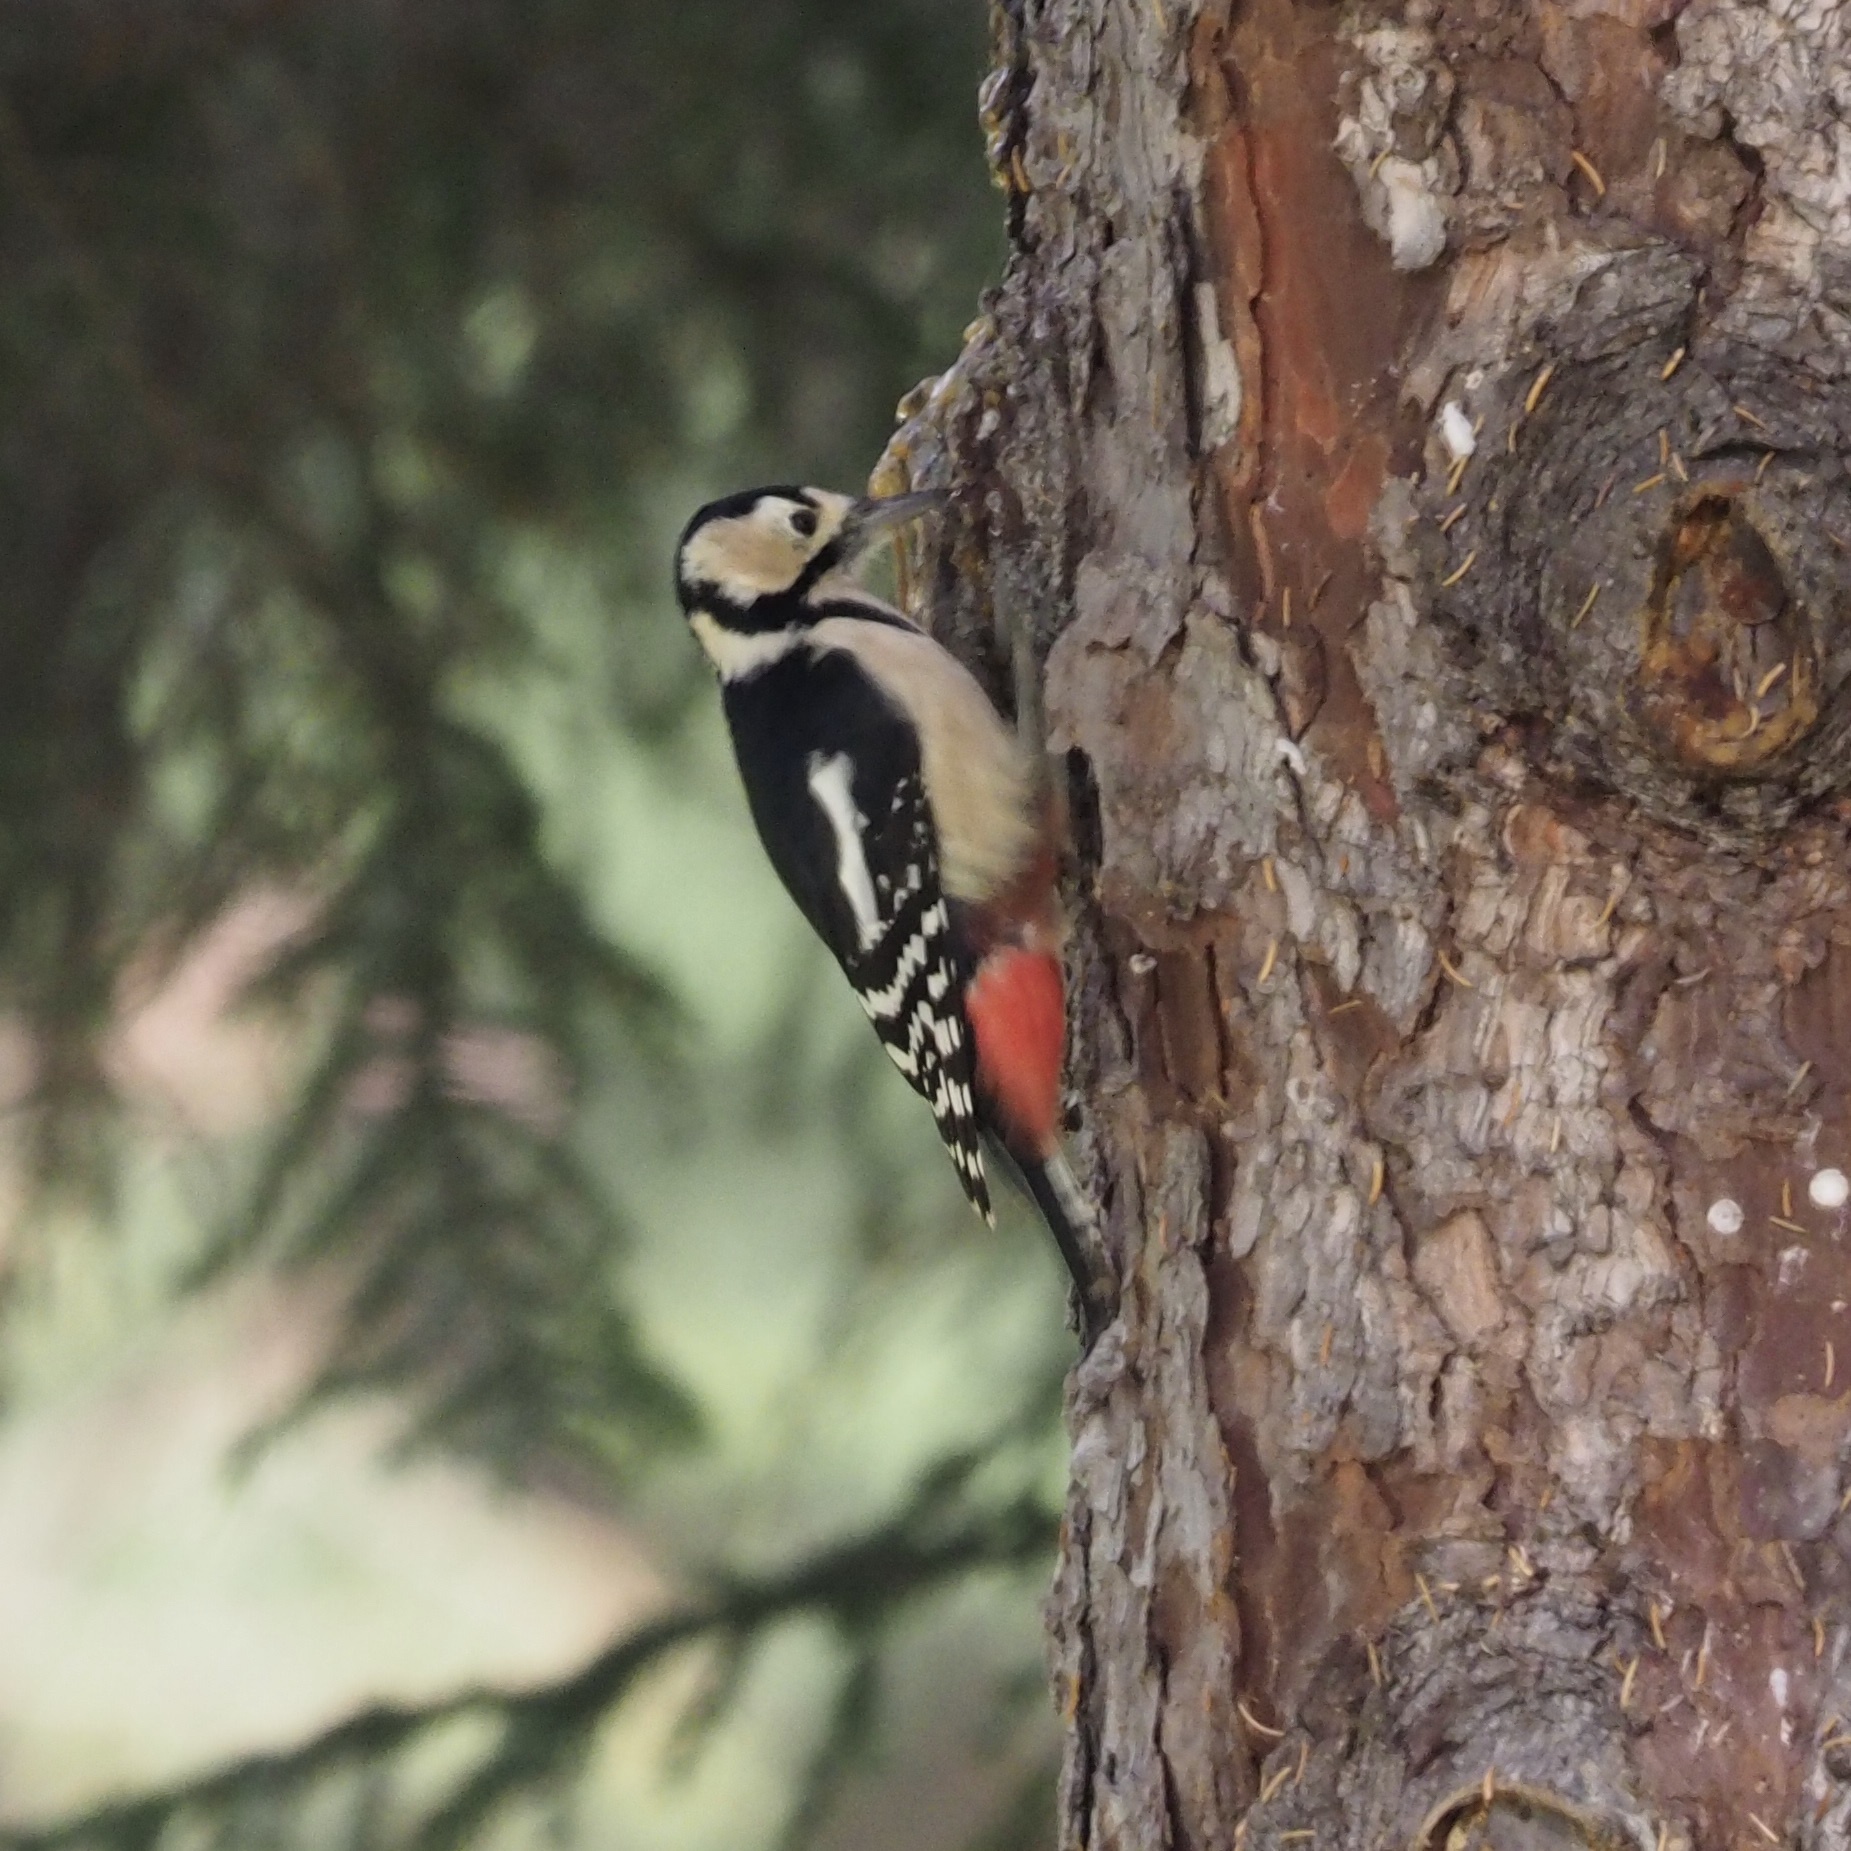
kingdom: Animalia
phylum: Chordata
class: Aves
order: Piciformes
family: Picidae
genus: Dendrocopos
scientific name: Dendrocopos major
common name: Great spotted woodpecker
